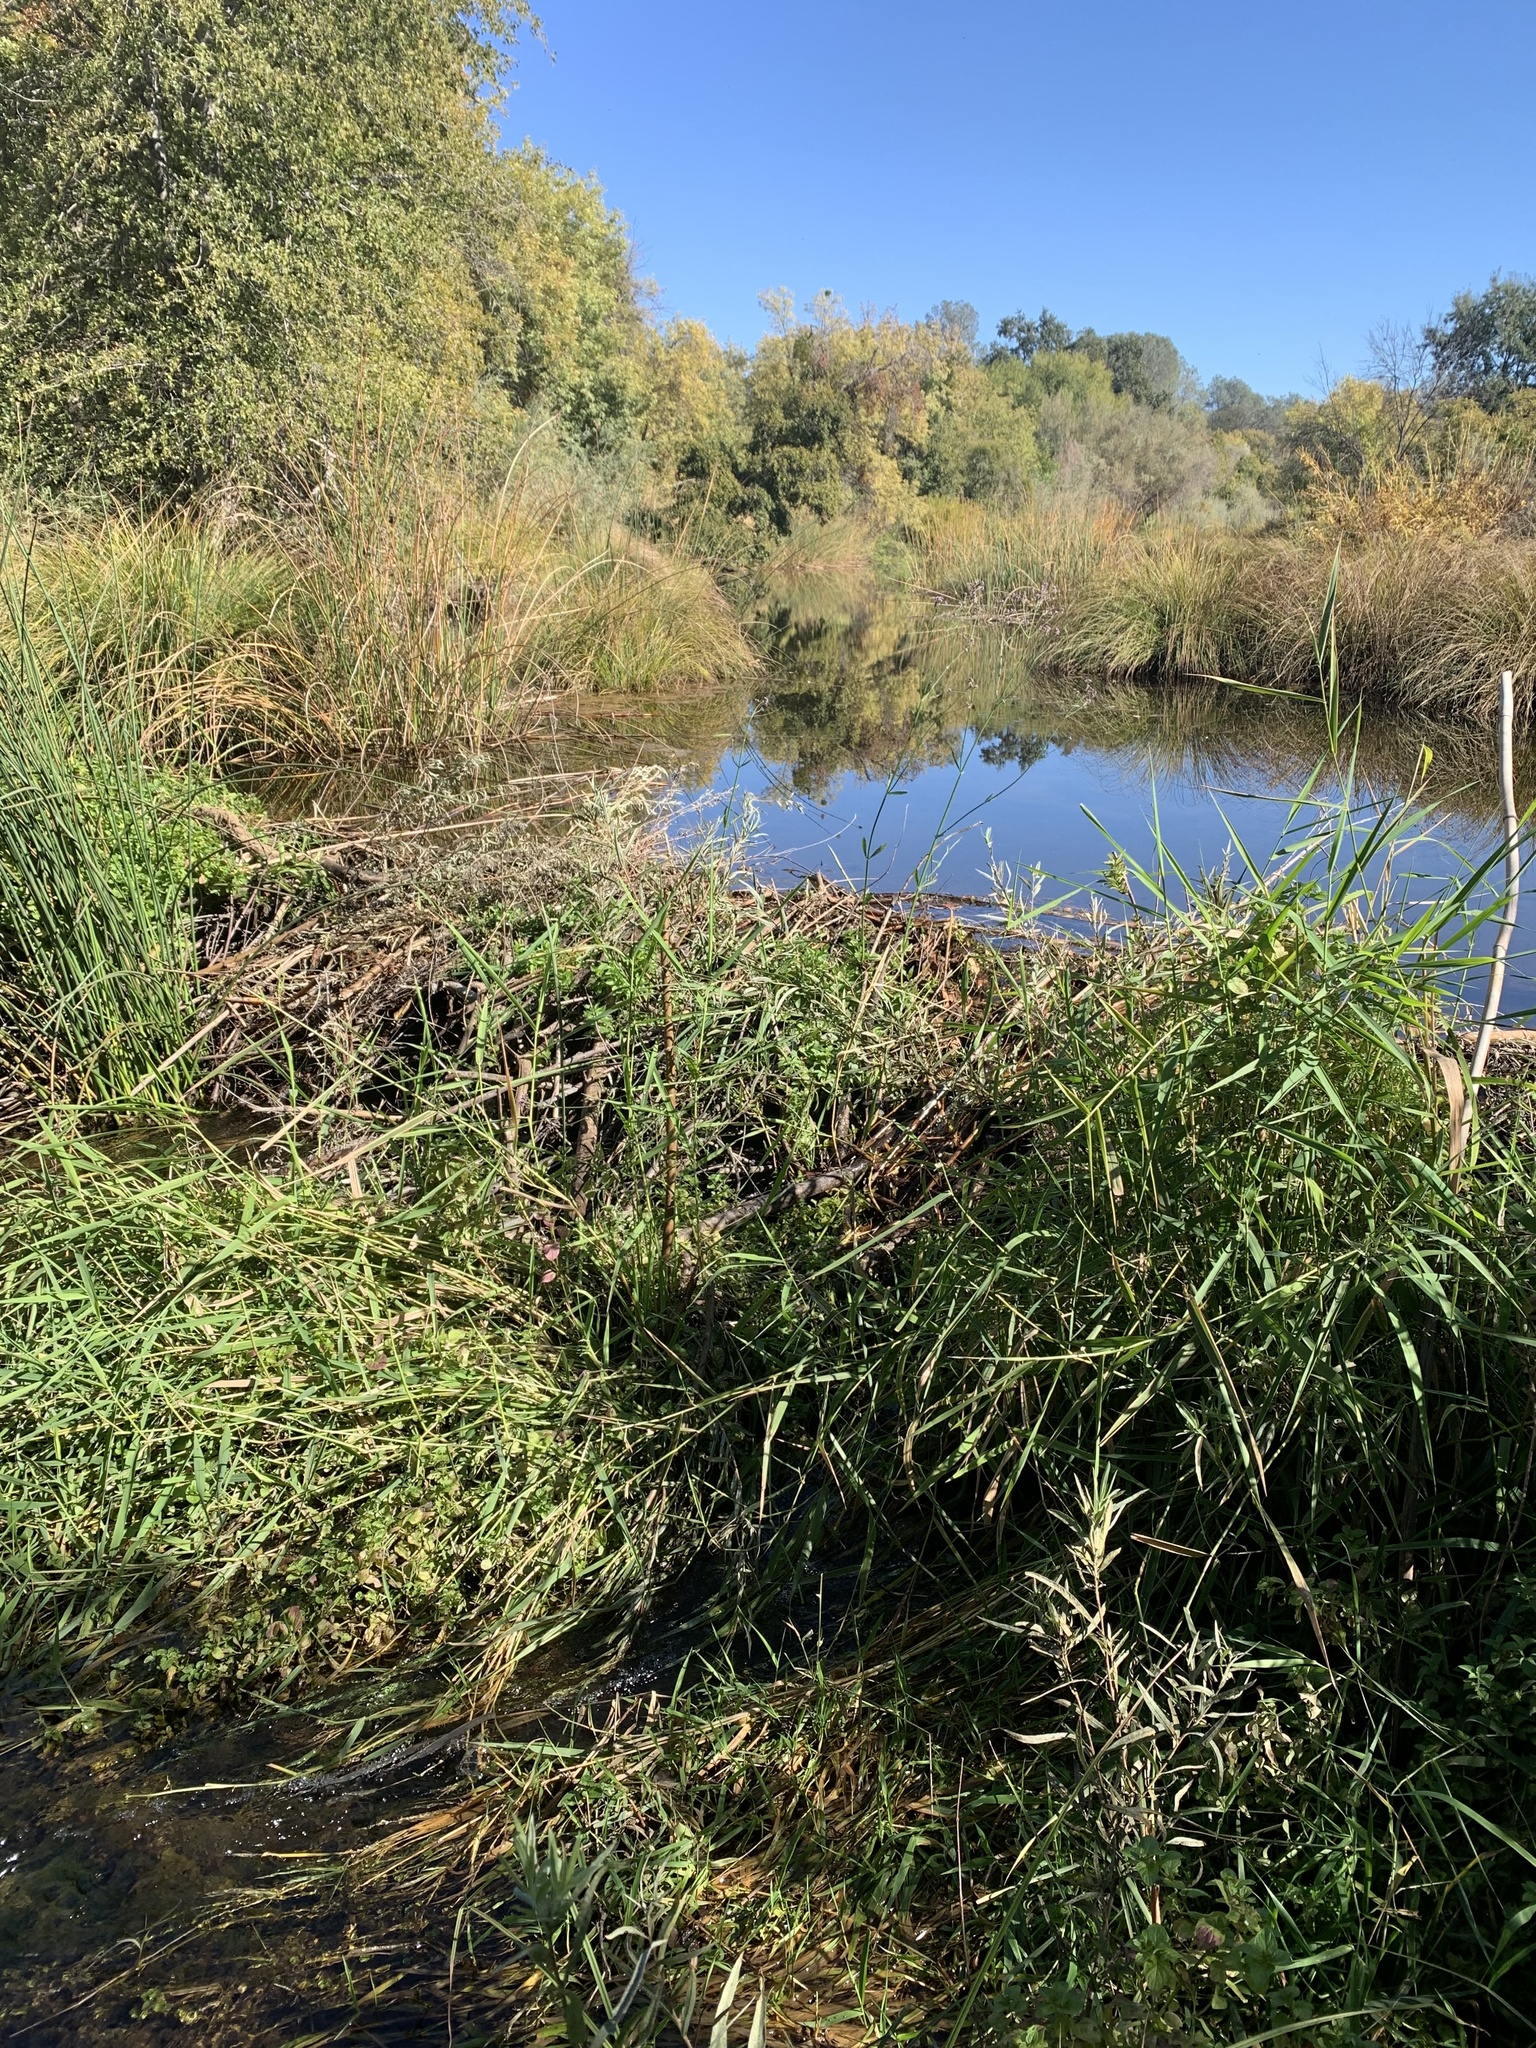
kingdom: Animalia
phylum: Chordata
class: Mammalia
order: Rodentia
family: Castoridae
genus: Castor
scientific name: Castor canadensis
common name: American beaver
